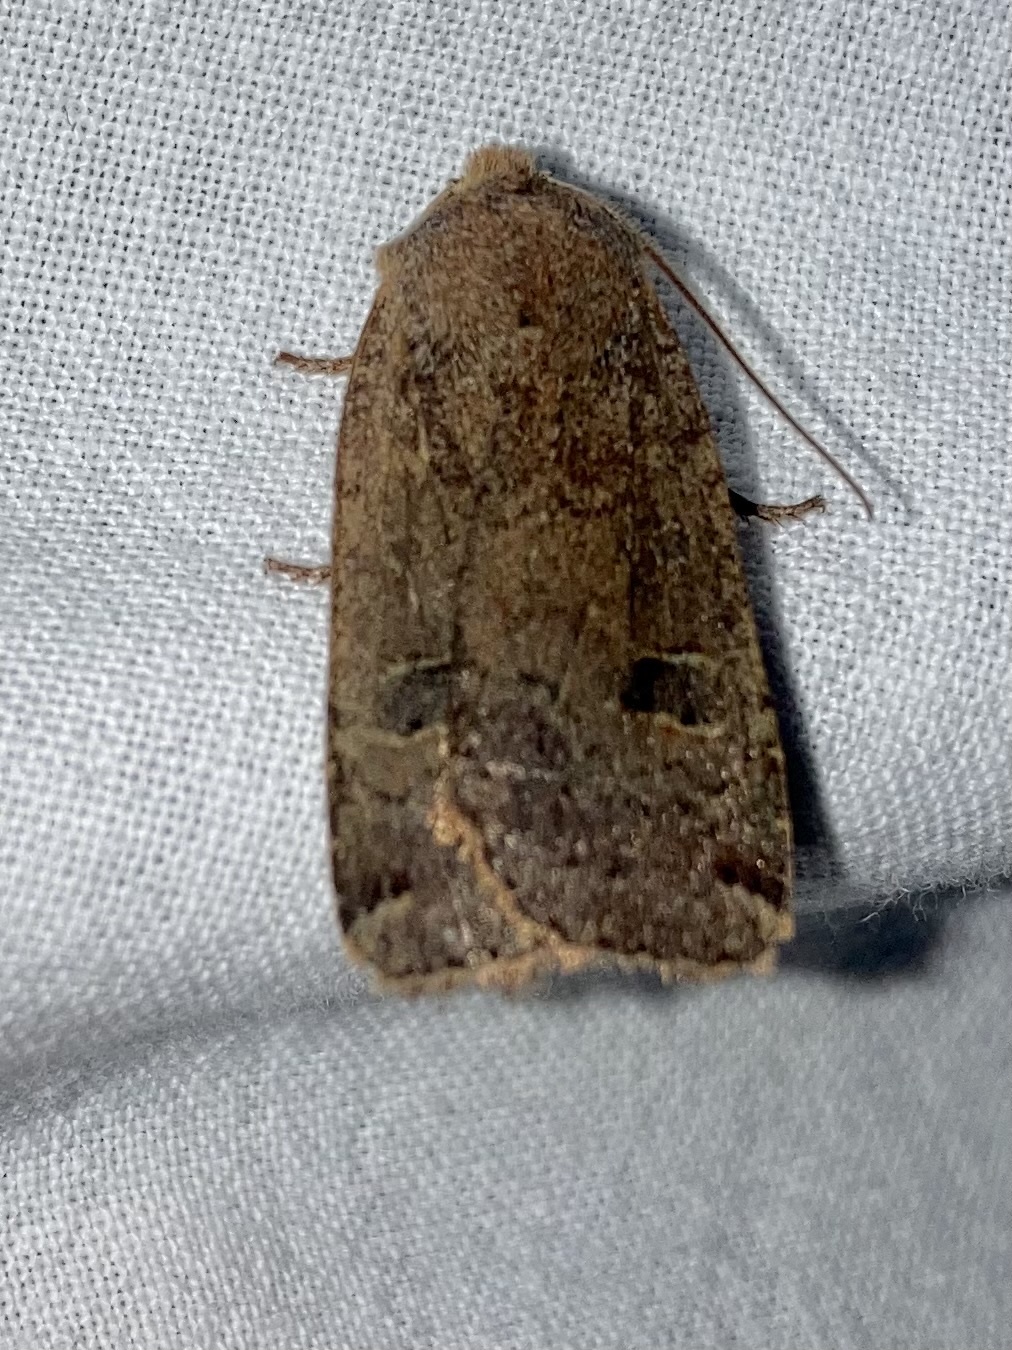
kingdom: Animalia
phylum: Arthropoda
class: Insecta
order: Lepidoptera
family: Noctuidae
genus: Conistra
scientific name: Conistra erythrocephala
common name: Red-headed chestnut
